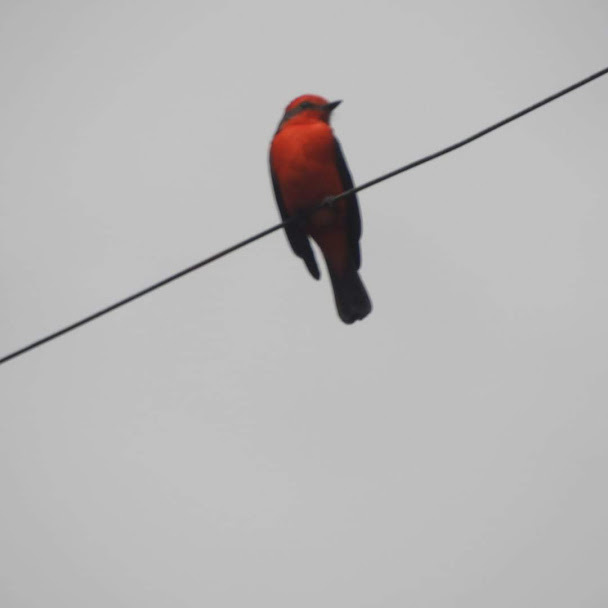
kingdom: Animalia
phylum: Chordata
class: Aves
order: Passeriformes
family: Tyrannidae
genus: Pyrocephalus
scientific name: Pyrocephalus rubinus
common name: Vermilion flycatcher
